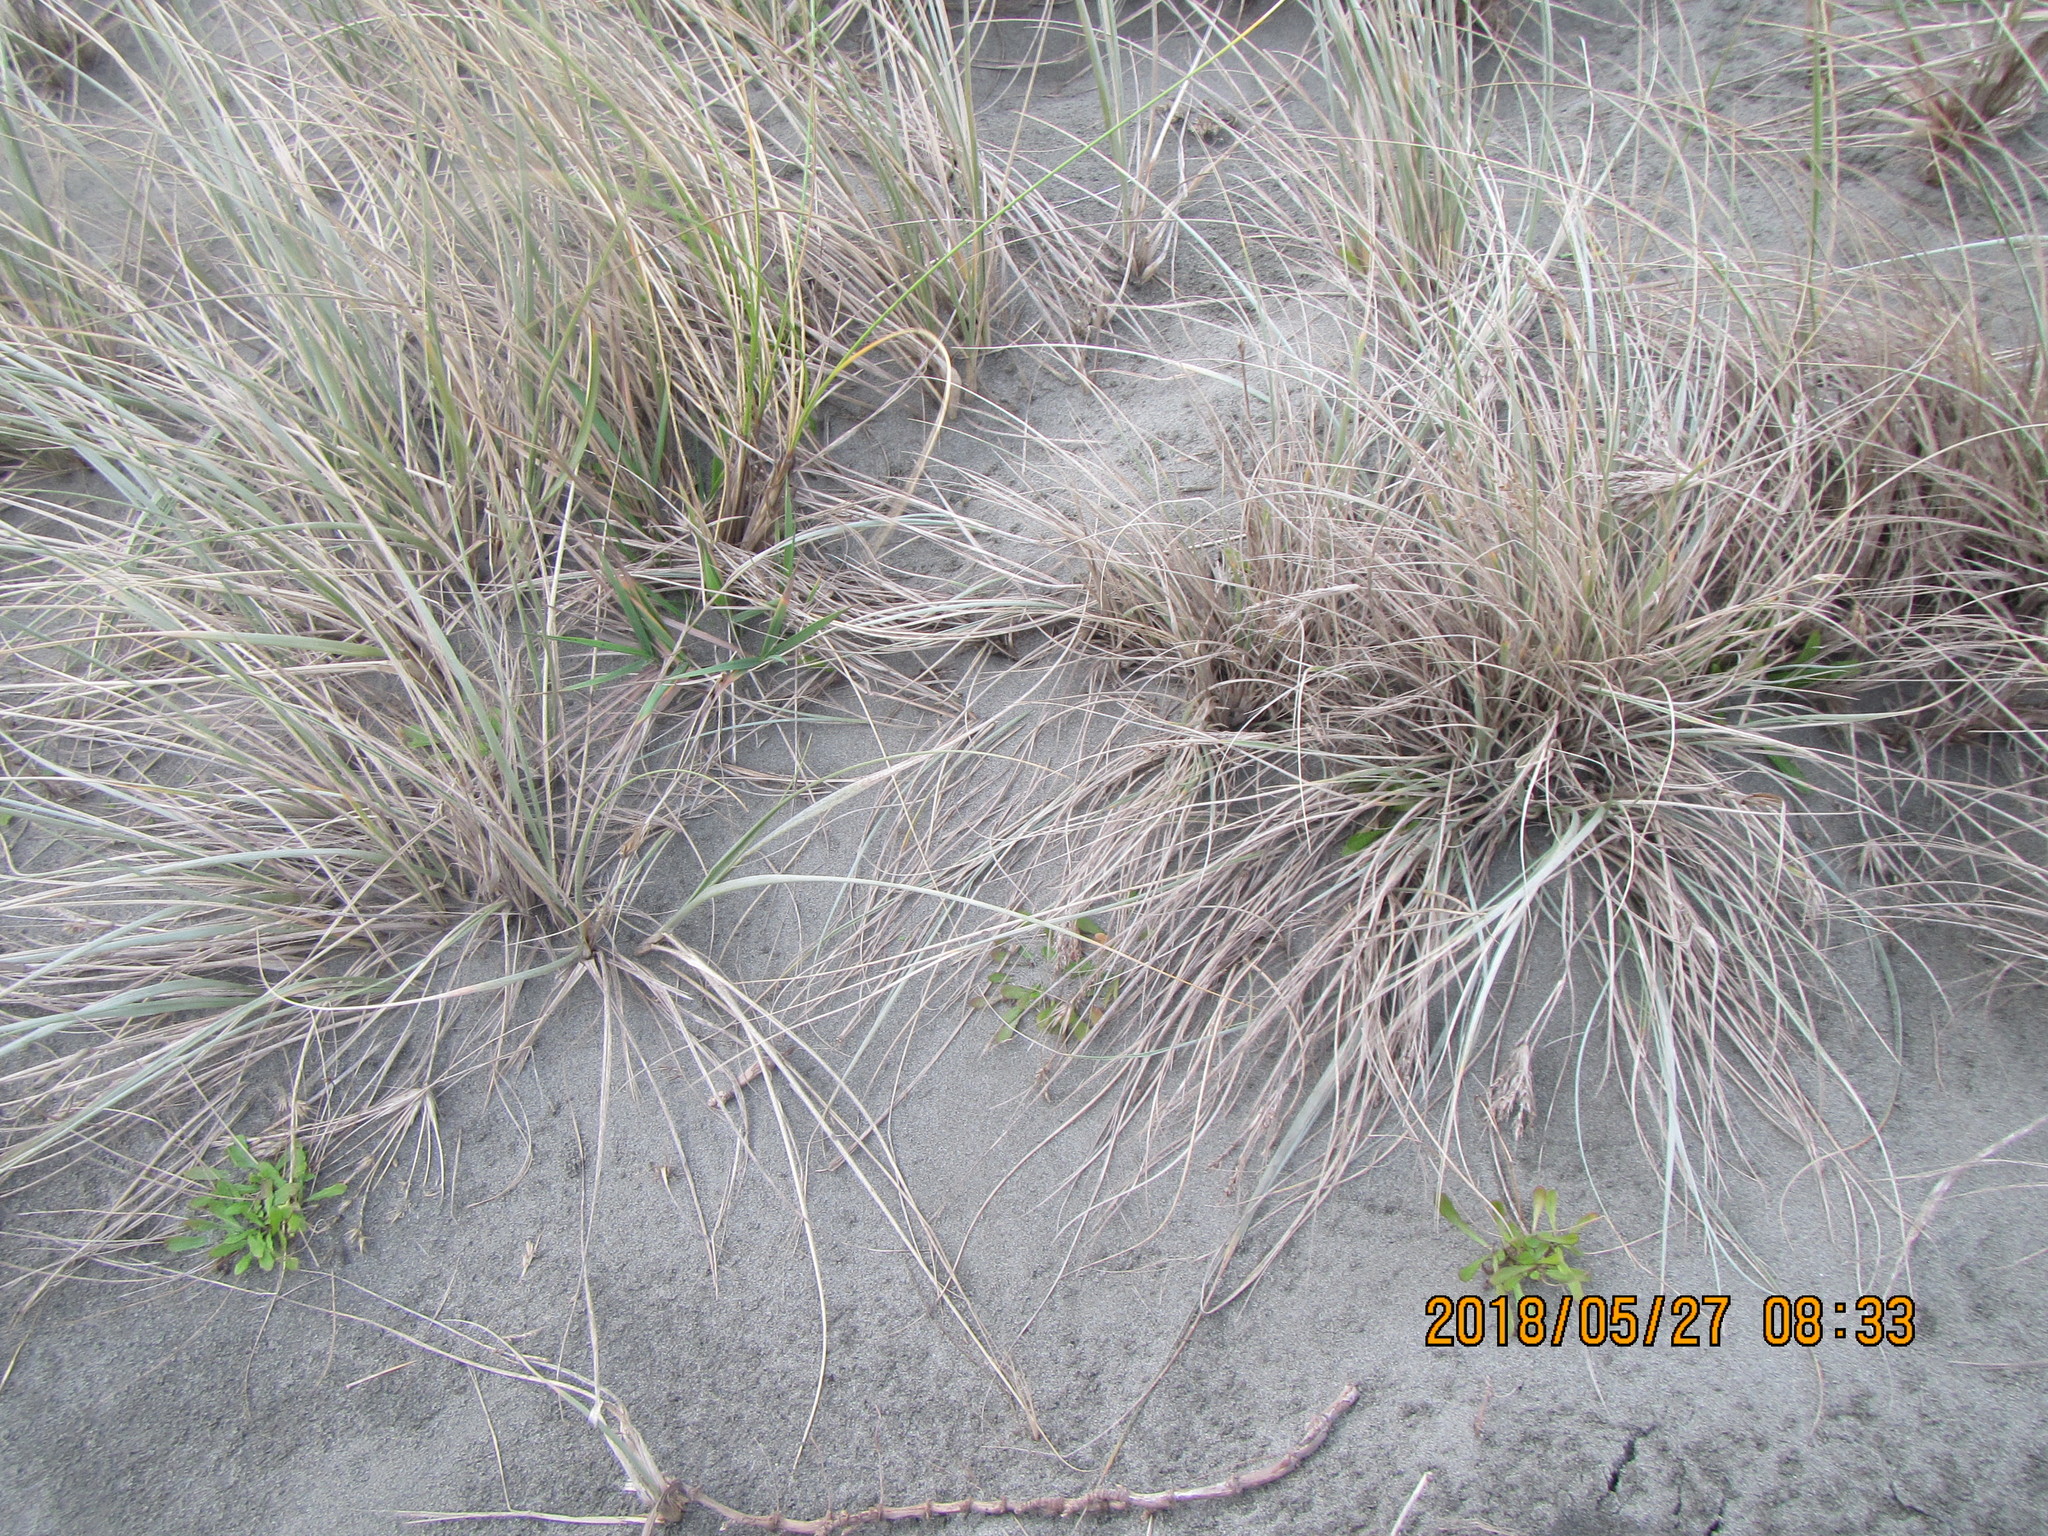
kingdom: Plantae
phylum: Tracheophyta
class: Liliopsida
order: Poales
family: Poaceae
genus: Spinifex
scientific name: Spinifex sericeus
